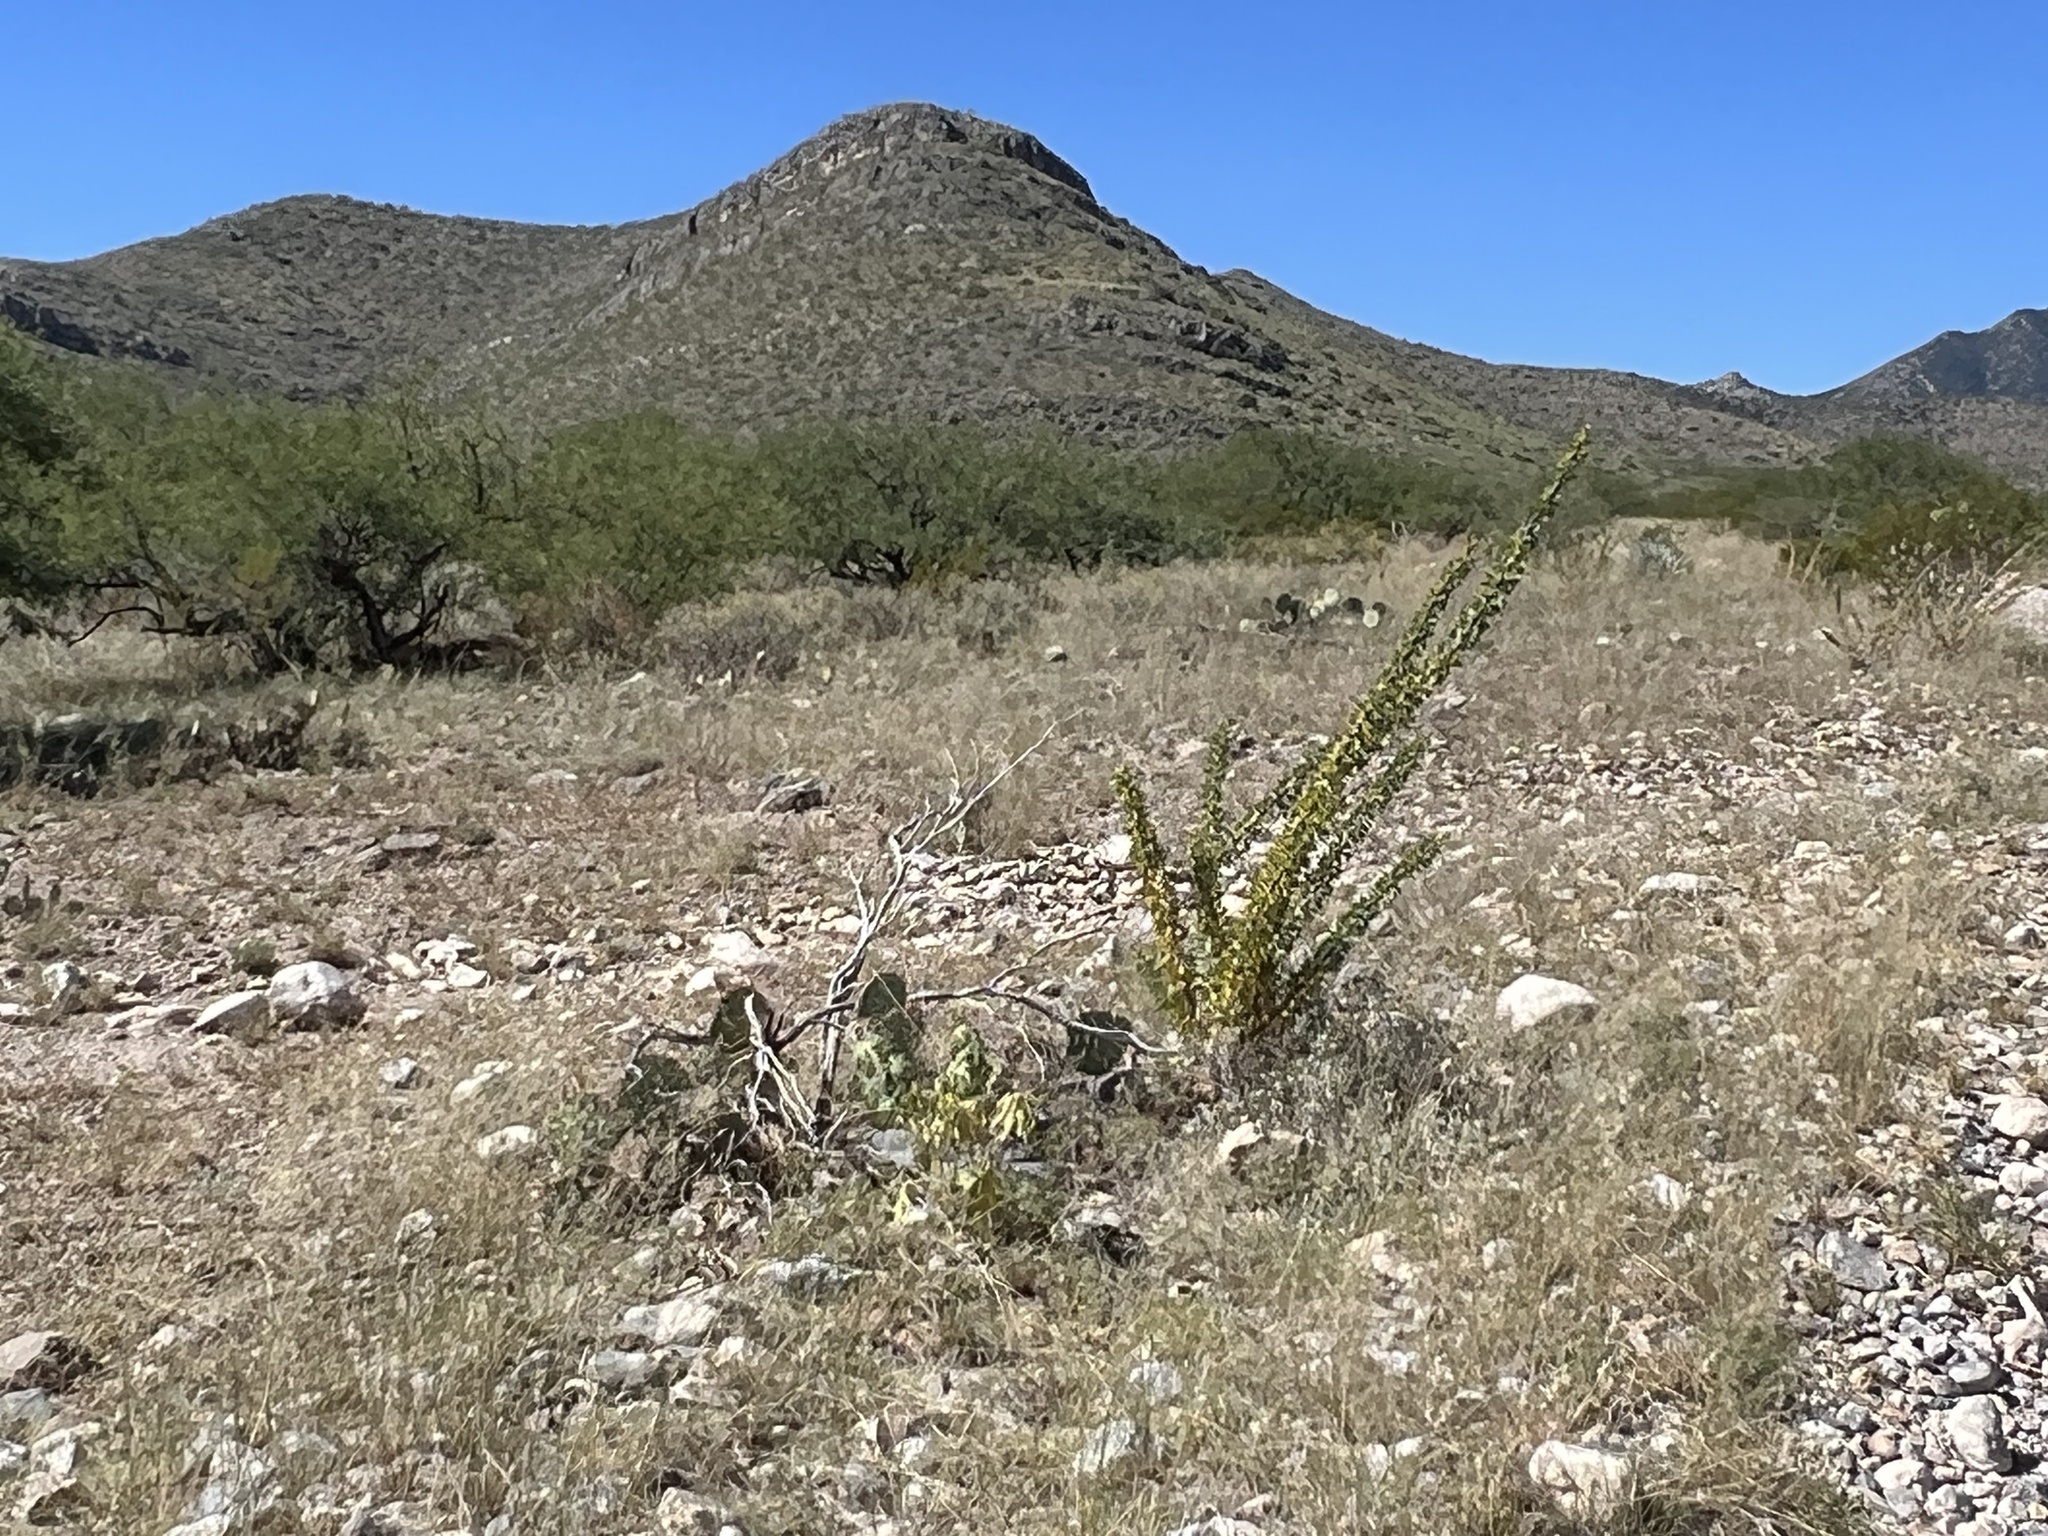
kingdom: Plantae
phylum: Tracheophyta
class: Magnoliopsida
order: Ericales
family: Fouquieriaceae
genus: Fouquieria
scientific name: Fouquieria splendens
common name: Vine-cactus
